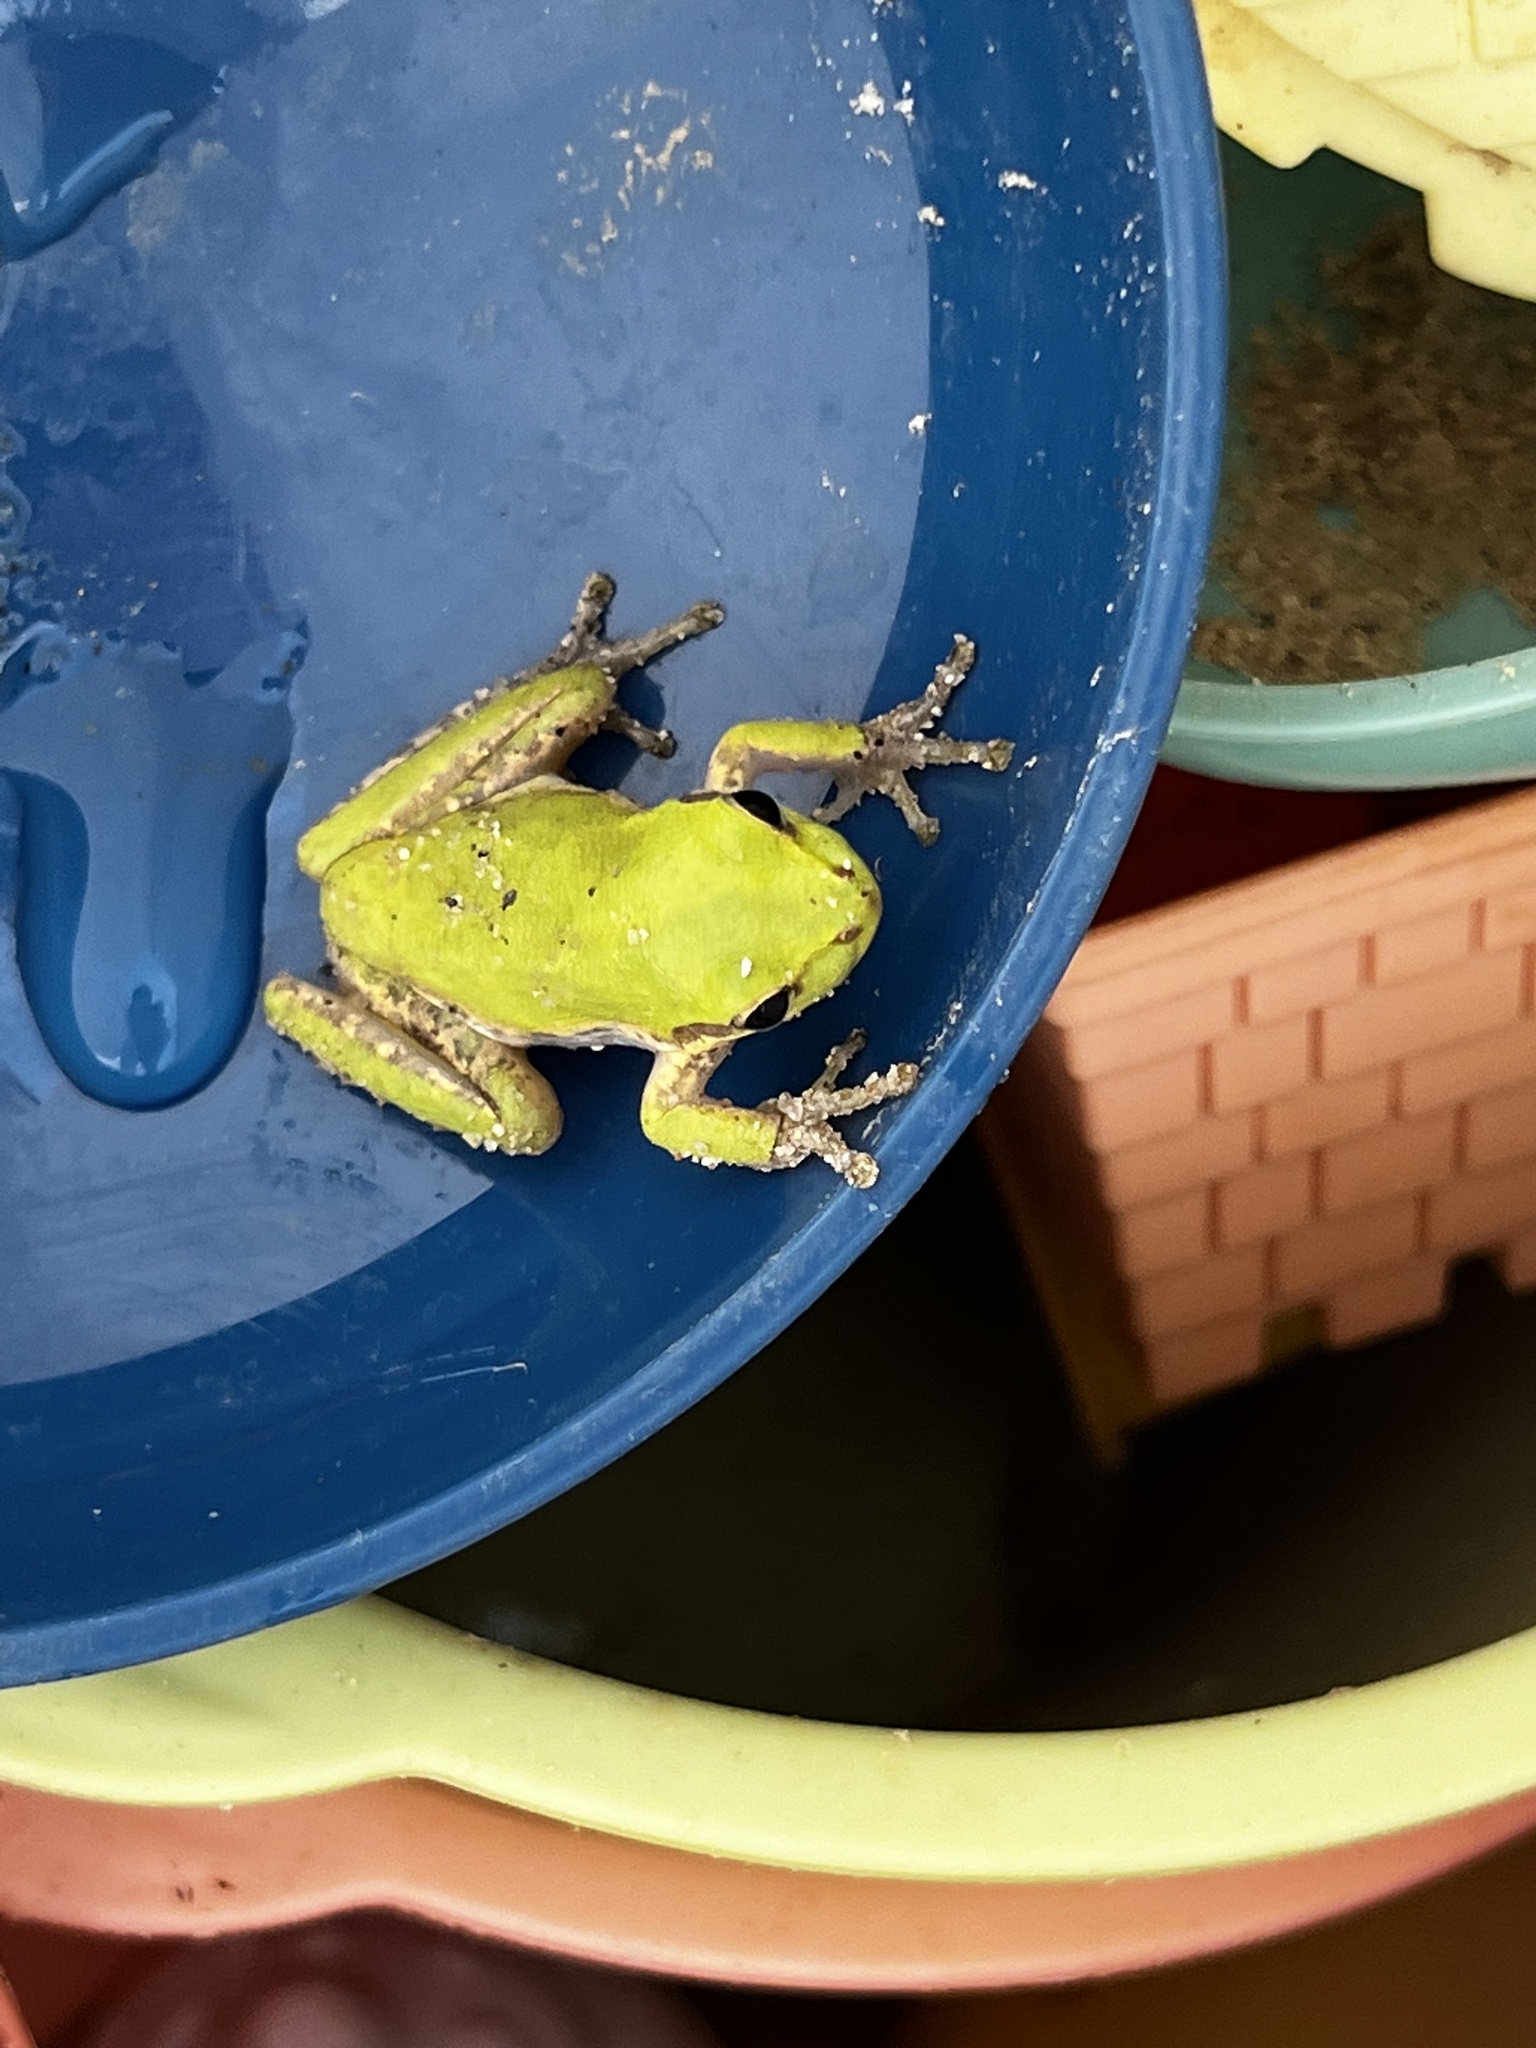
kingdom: Animalia
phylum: Chordata
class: Amphibia
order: Anura
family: Hylidae
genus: Dryophytes
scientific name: Dryophytes squirellus
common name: Squirrel treefrog
